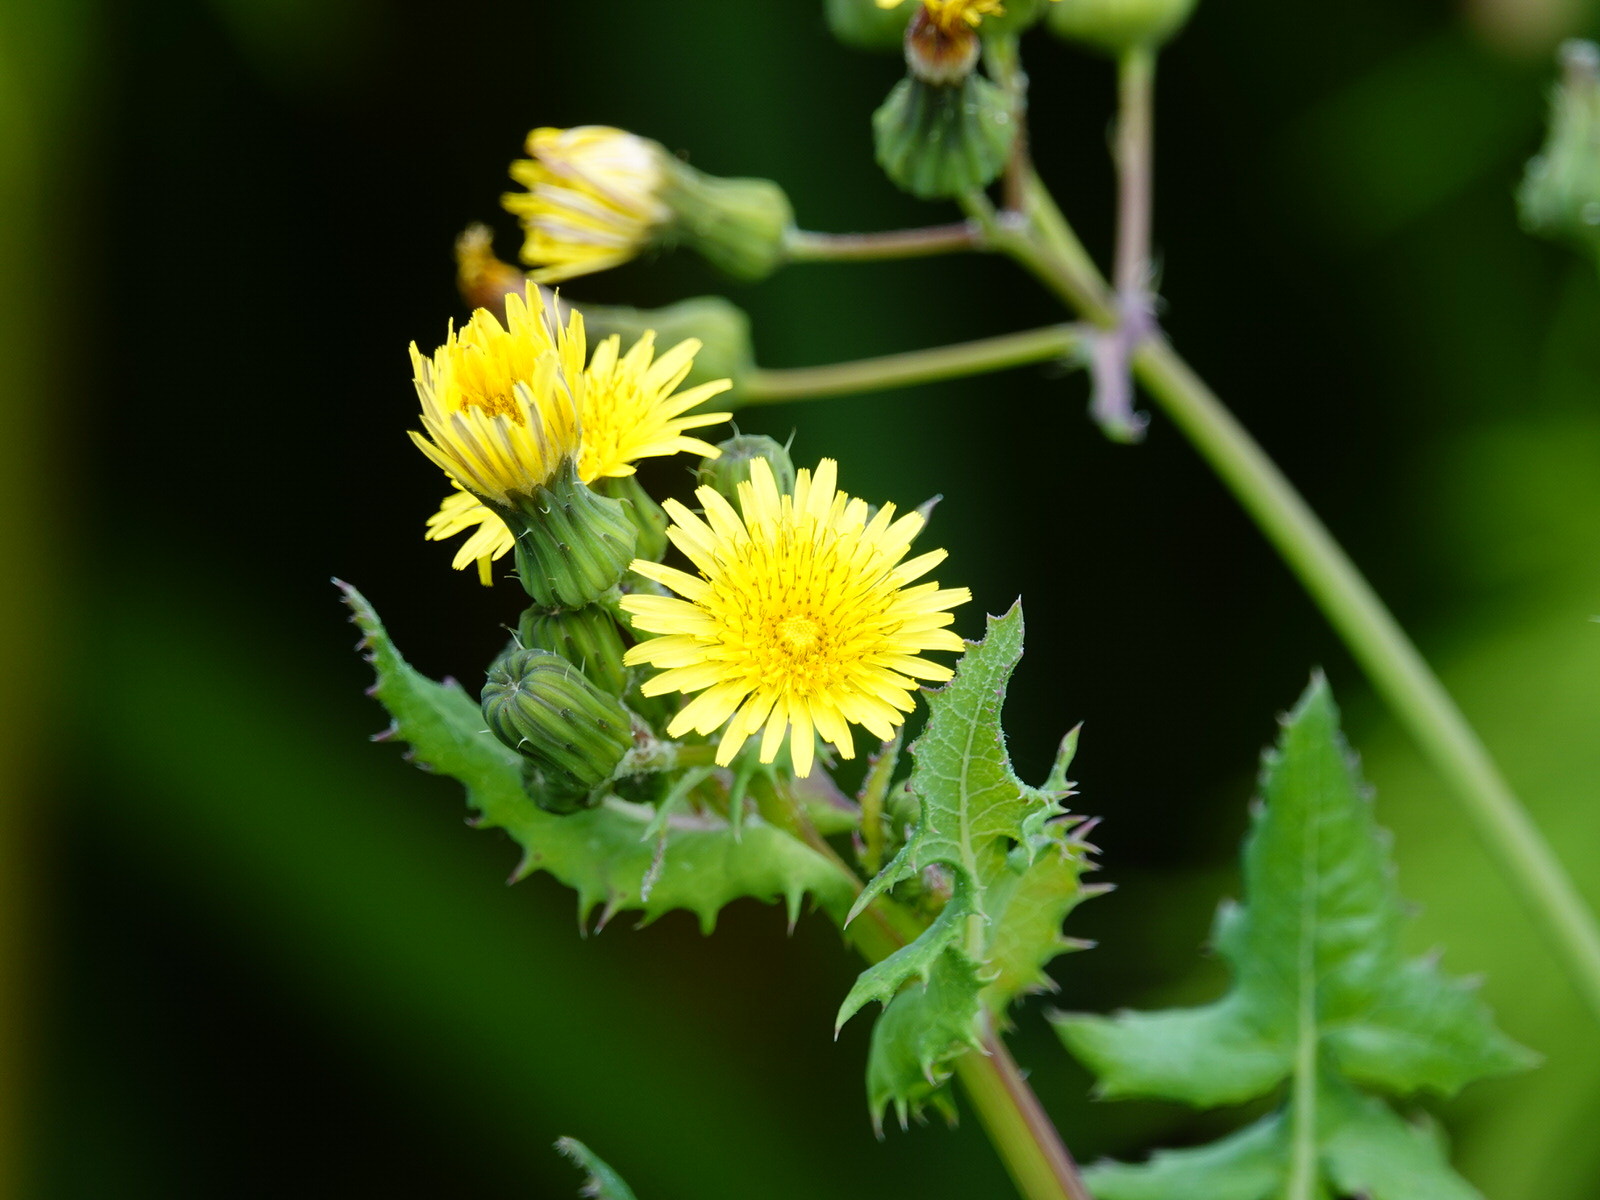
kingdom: Plantae
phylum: Tracheophyta
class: Magnoliopsida
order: Asterales
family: Asteraceae
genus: Sonchus
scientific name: Sonchus oleraceus
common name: Common sowthistle
